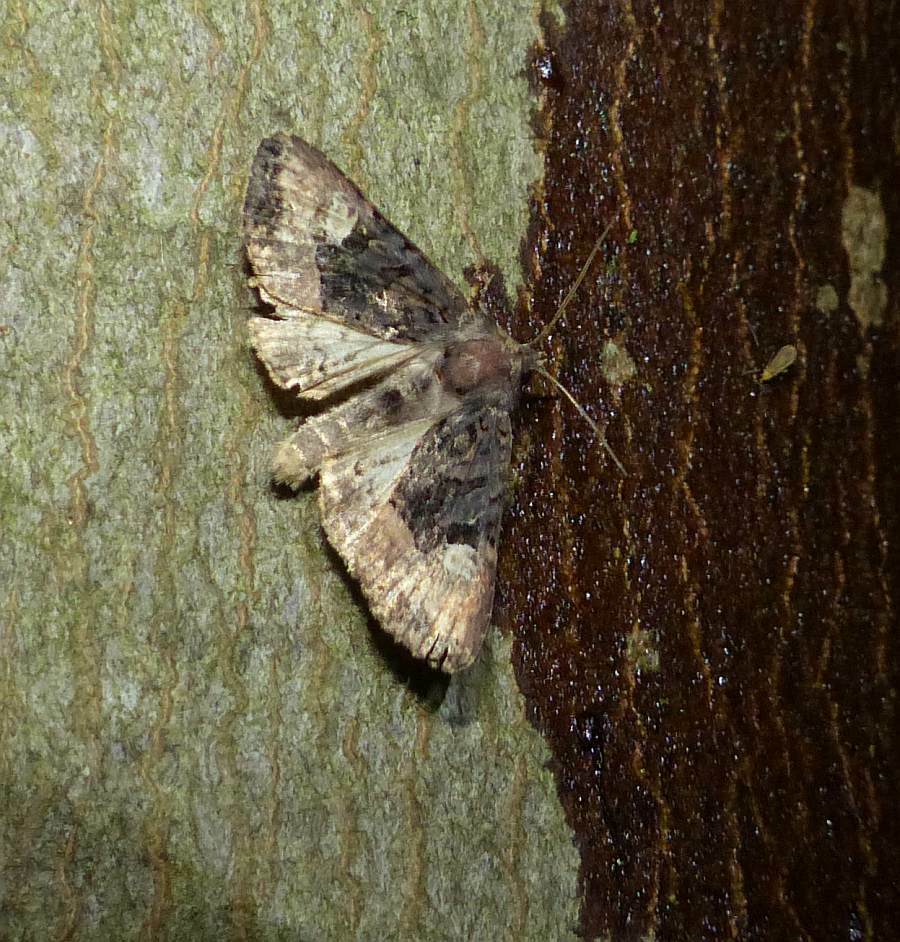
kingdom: Animalia
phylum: Arthropoda
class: Insecta
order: Lepidoptera
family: Noctuidae
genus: Euplexia
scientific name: Euplexia benesimilis
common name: American angle shades
